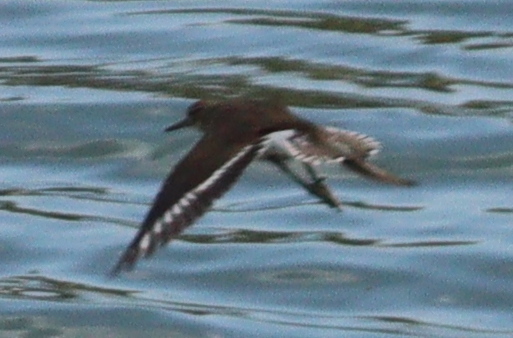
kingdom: Animalia
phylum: Chordata
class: Aves
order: Charadriiformes
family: Scolopacidae
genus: Actitis
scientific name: Actitis hypoleucos
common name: Common sandpiper
